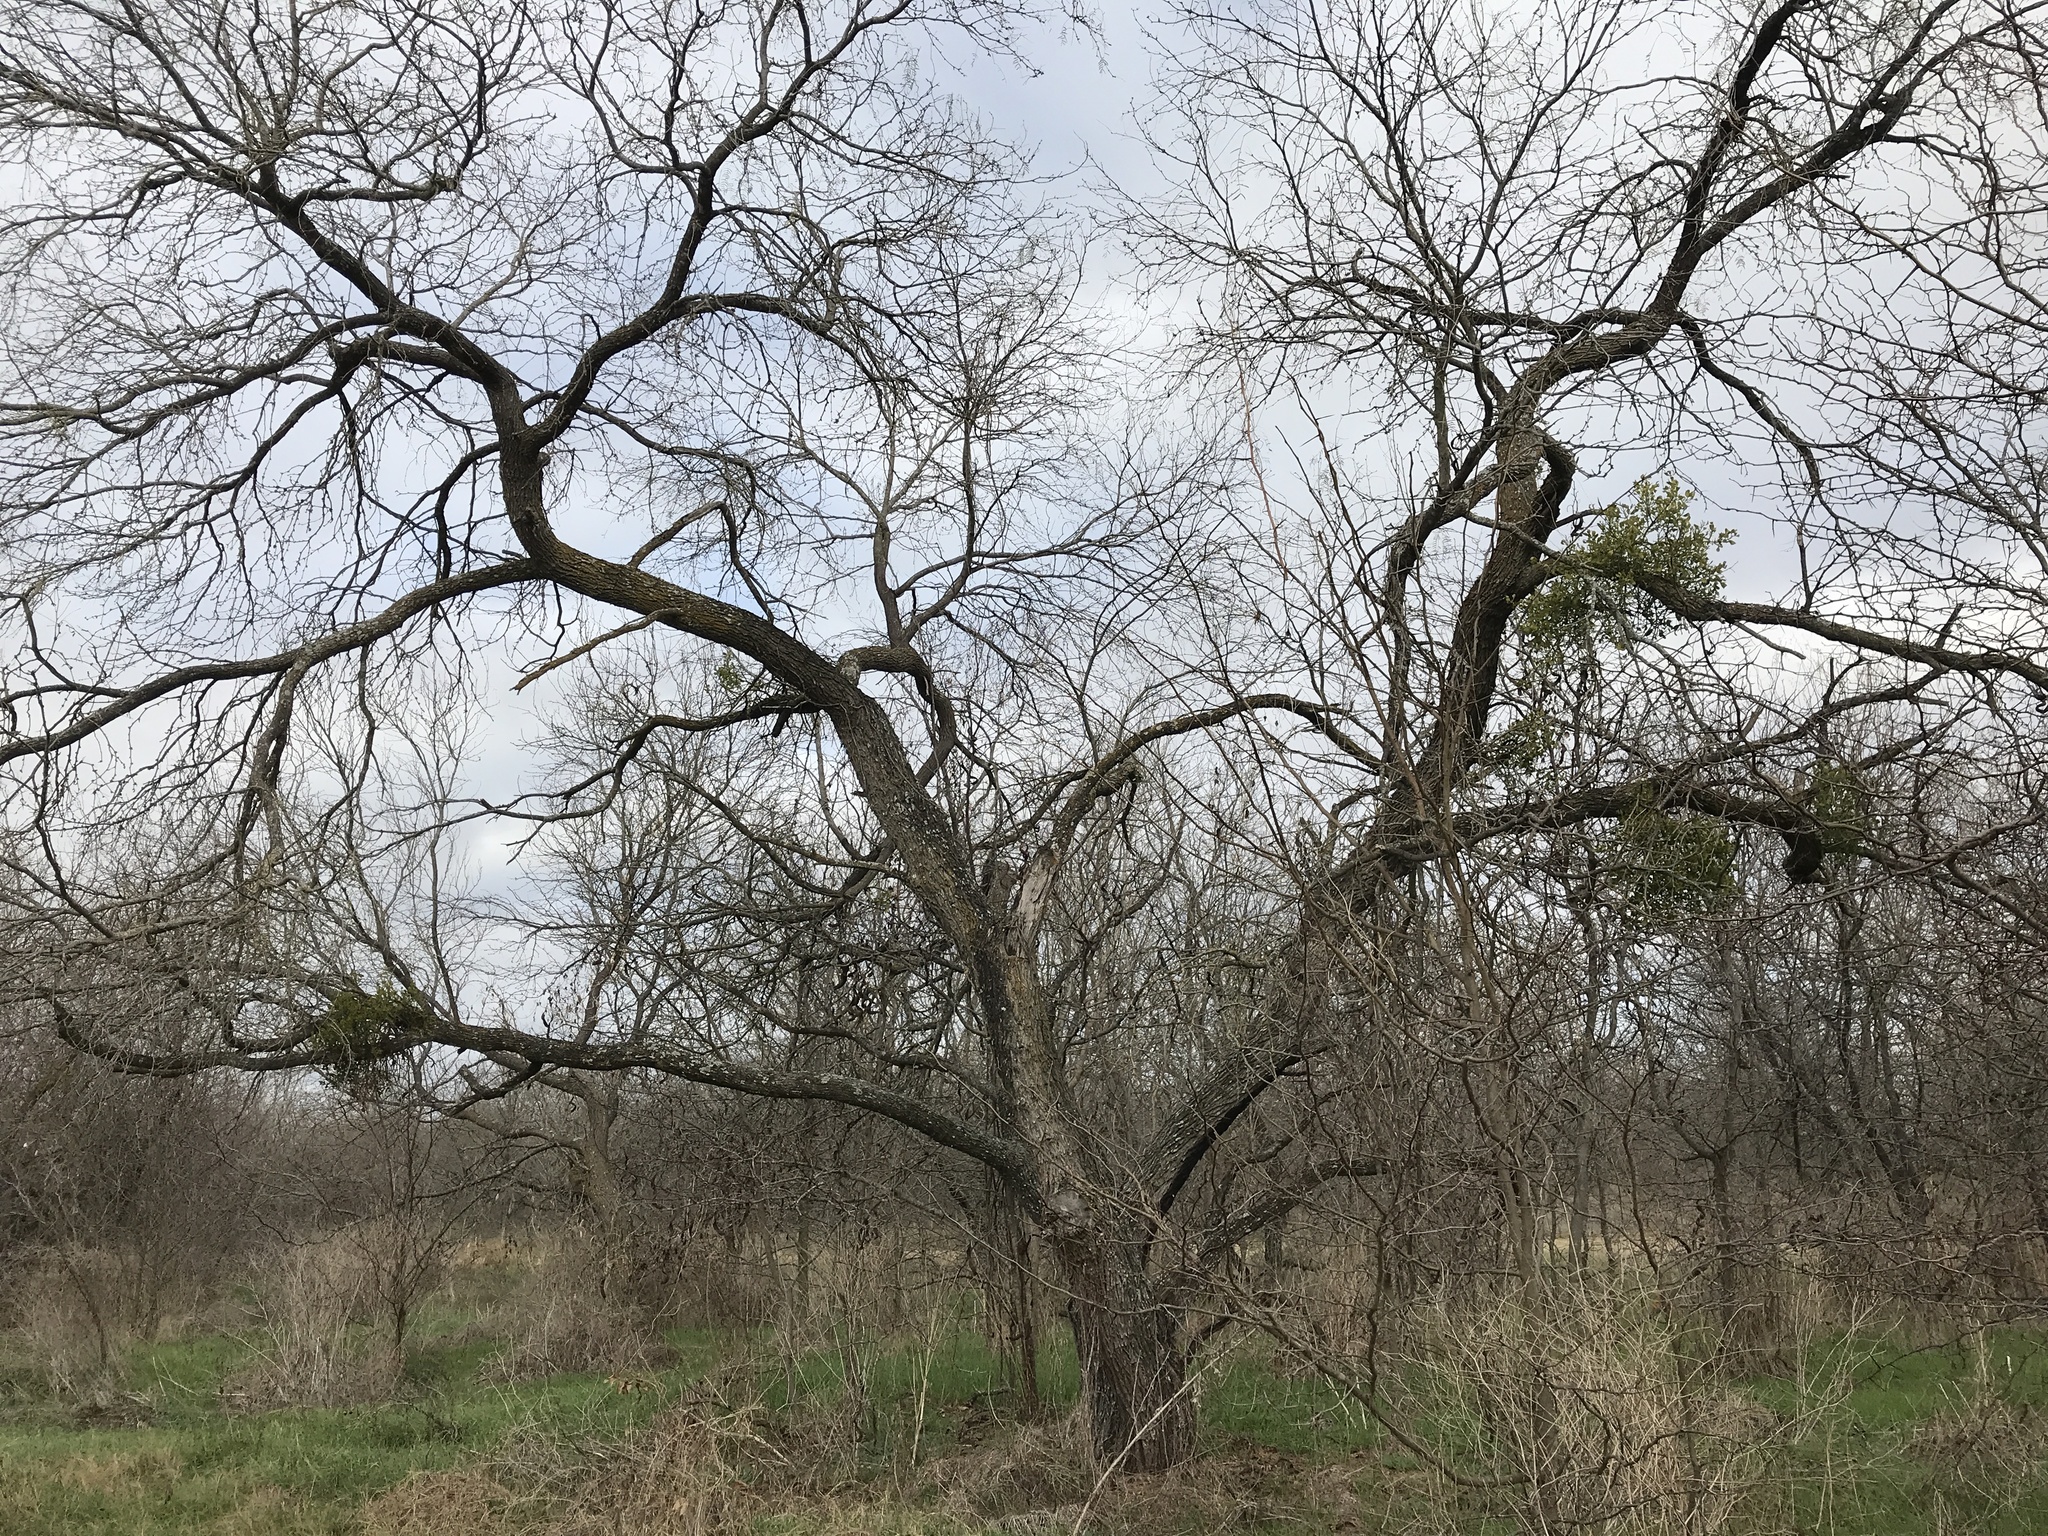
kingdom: Plantae
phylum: Tracheophyta
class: Magnoliopsida
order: Fabales
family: Fabaceae
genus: Prosopis
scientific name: Prosopis glandulosa
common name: Honey mesquite
